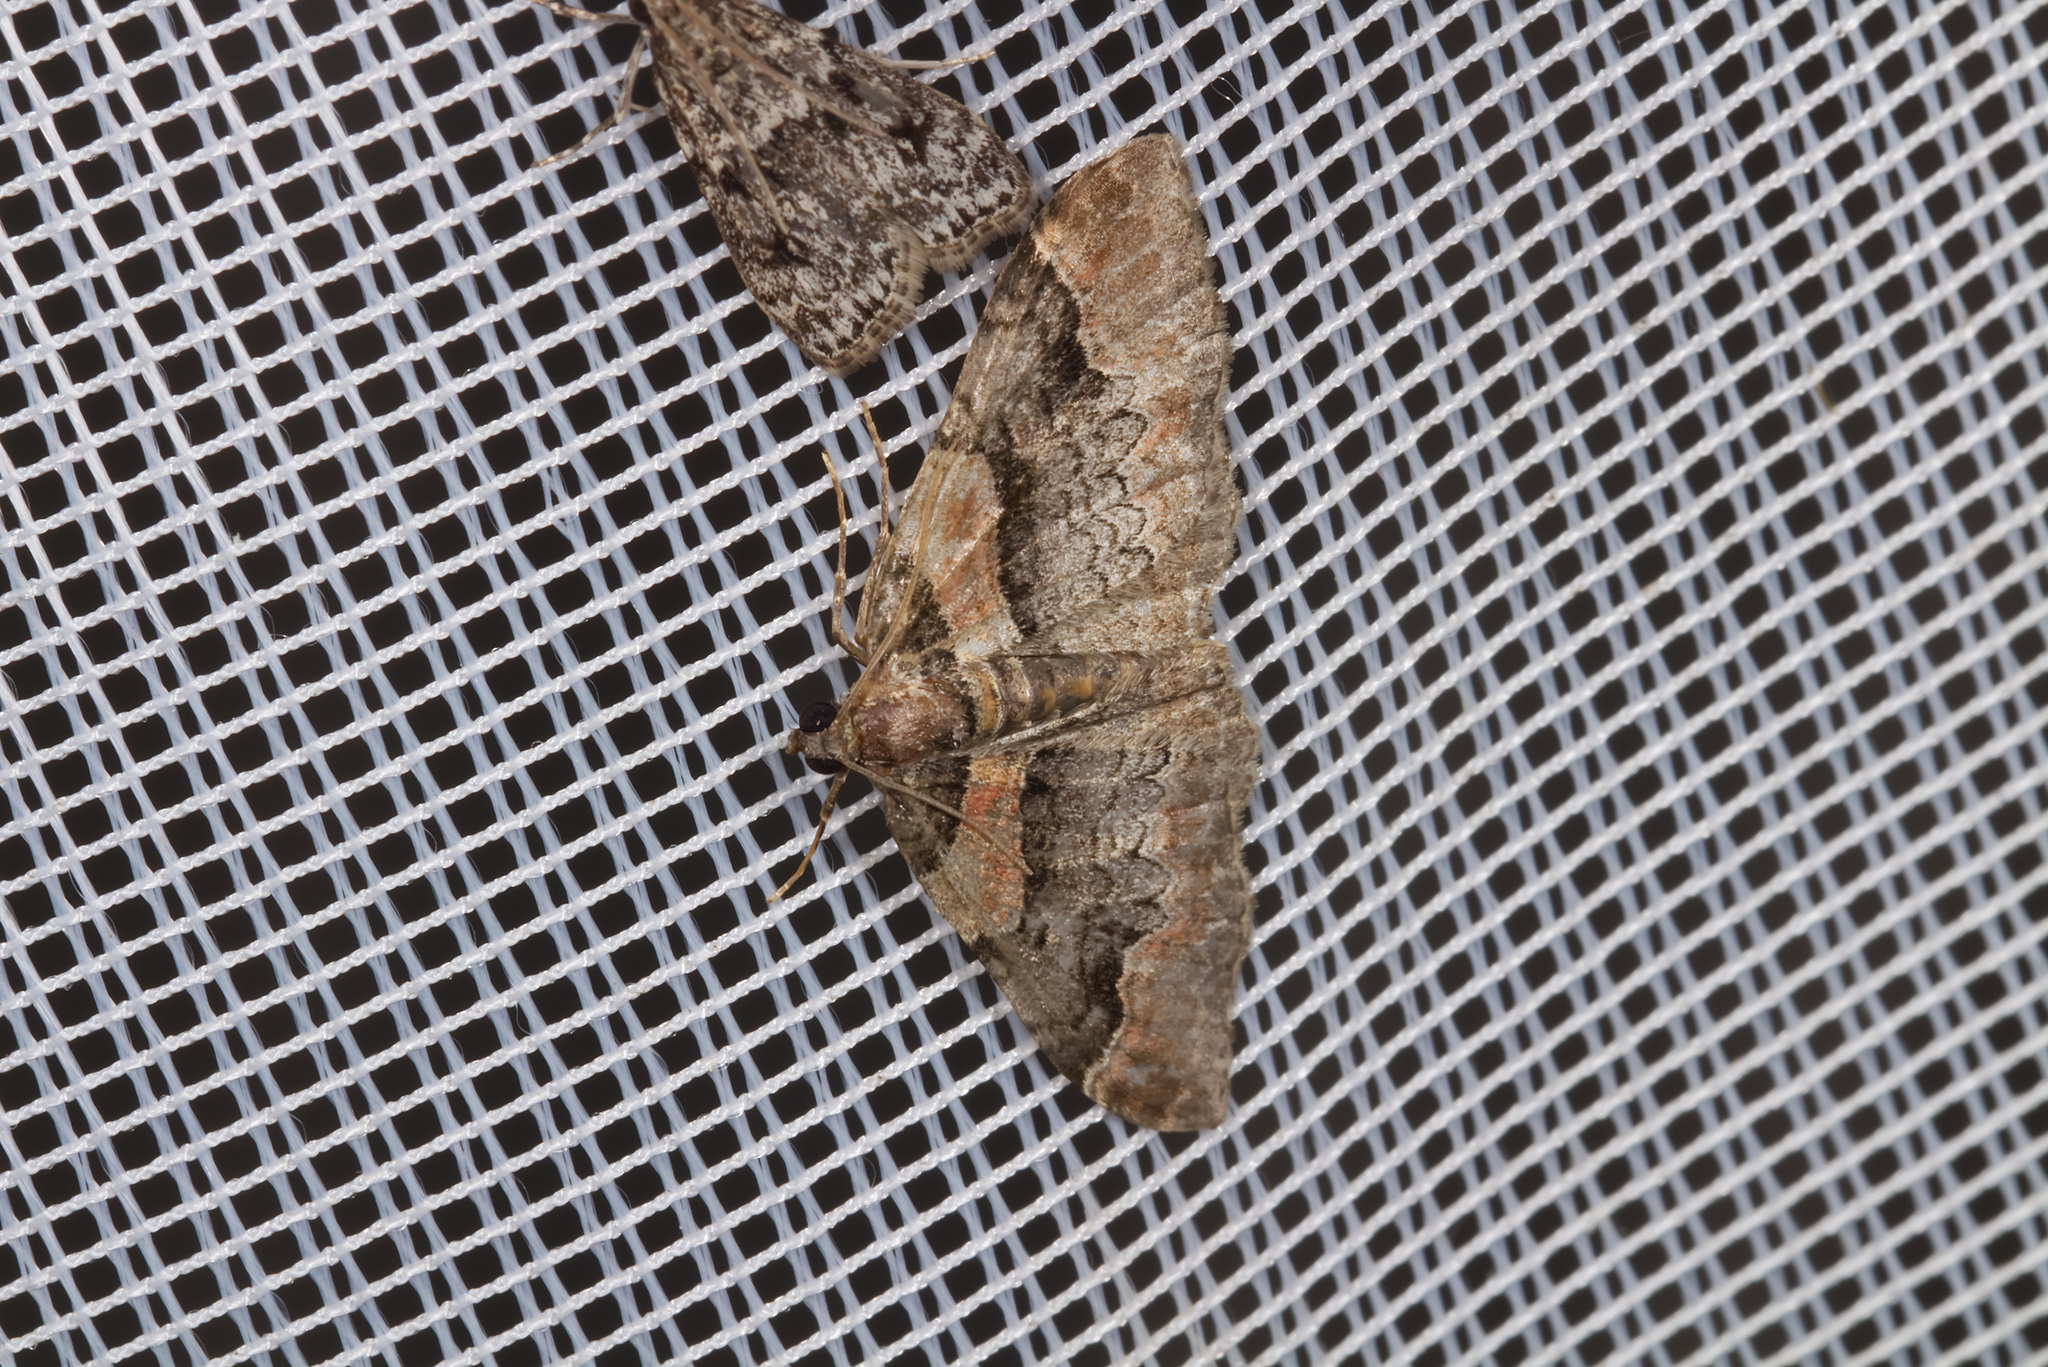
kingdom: Animalia
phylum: Arthropoda
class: Insecta
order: Lepidoptera
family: Geometridae
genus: Catarhoe
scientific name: Catarhoe rubidata
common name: Ruddy carpet
